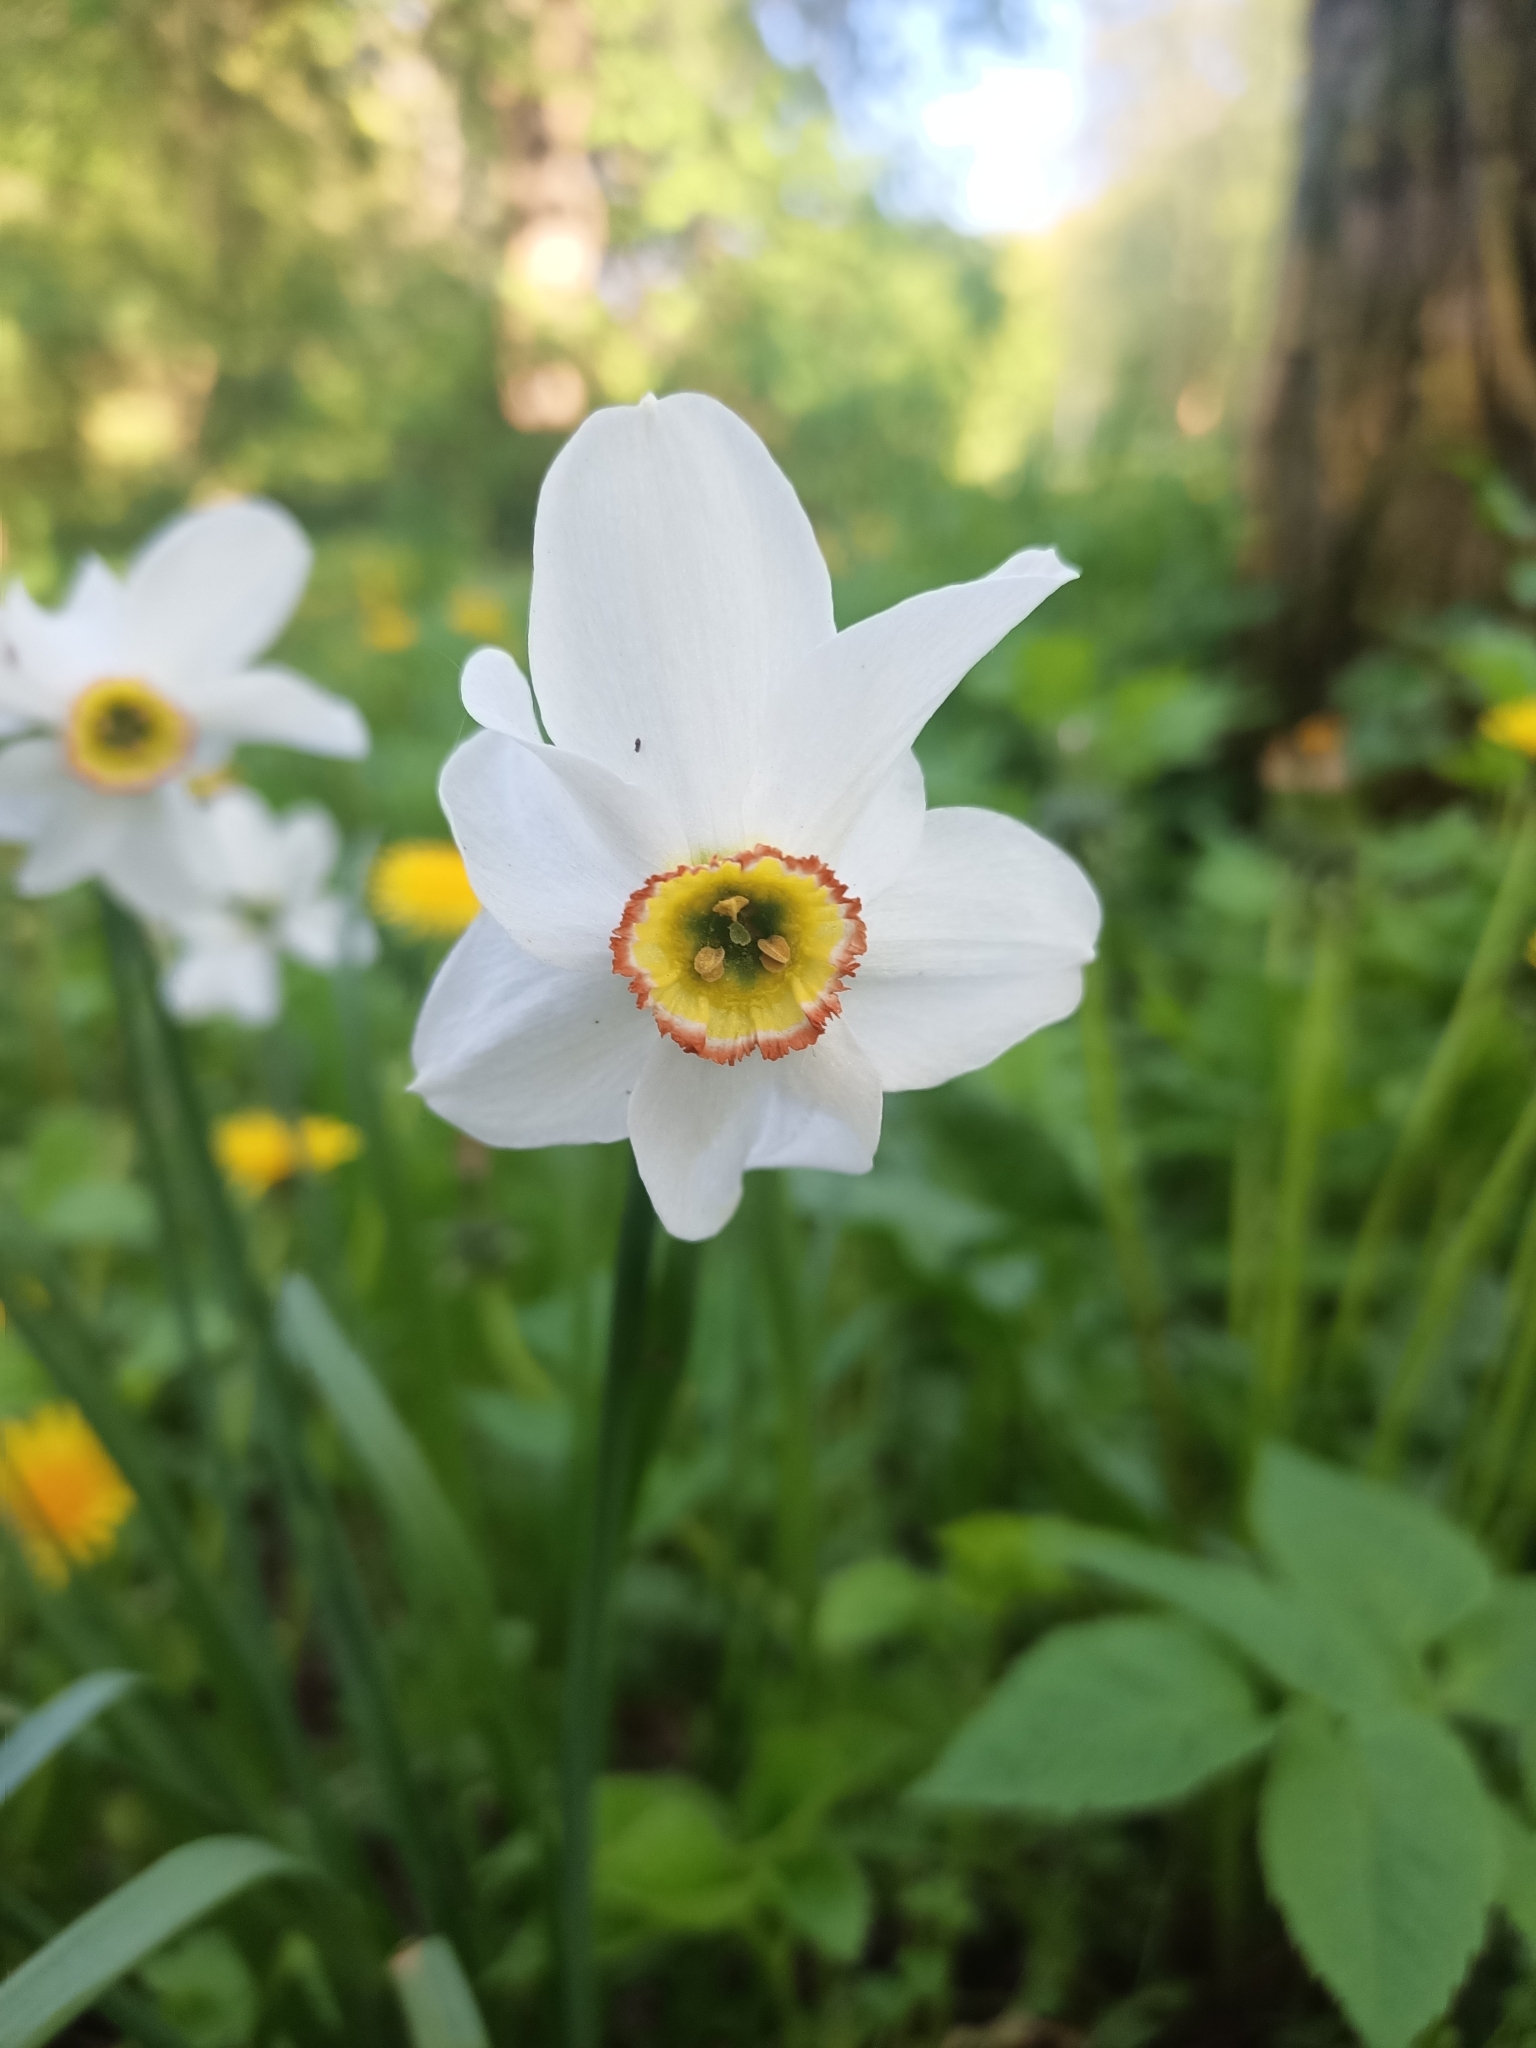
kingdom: Plantae
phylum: Tracheophyta
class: Liliopsida
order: Asparagales
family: Amaryllidaceae
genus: Narcissus
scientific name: Narcissus poeticus
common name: Pheasant's-eye daffodil
